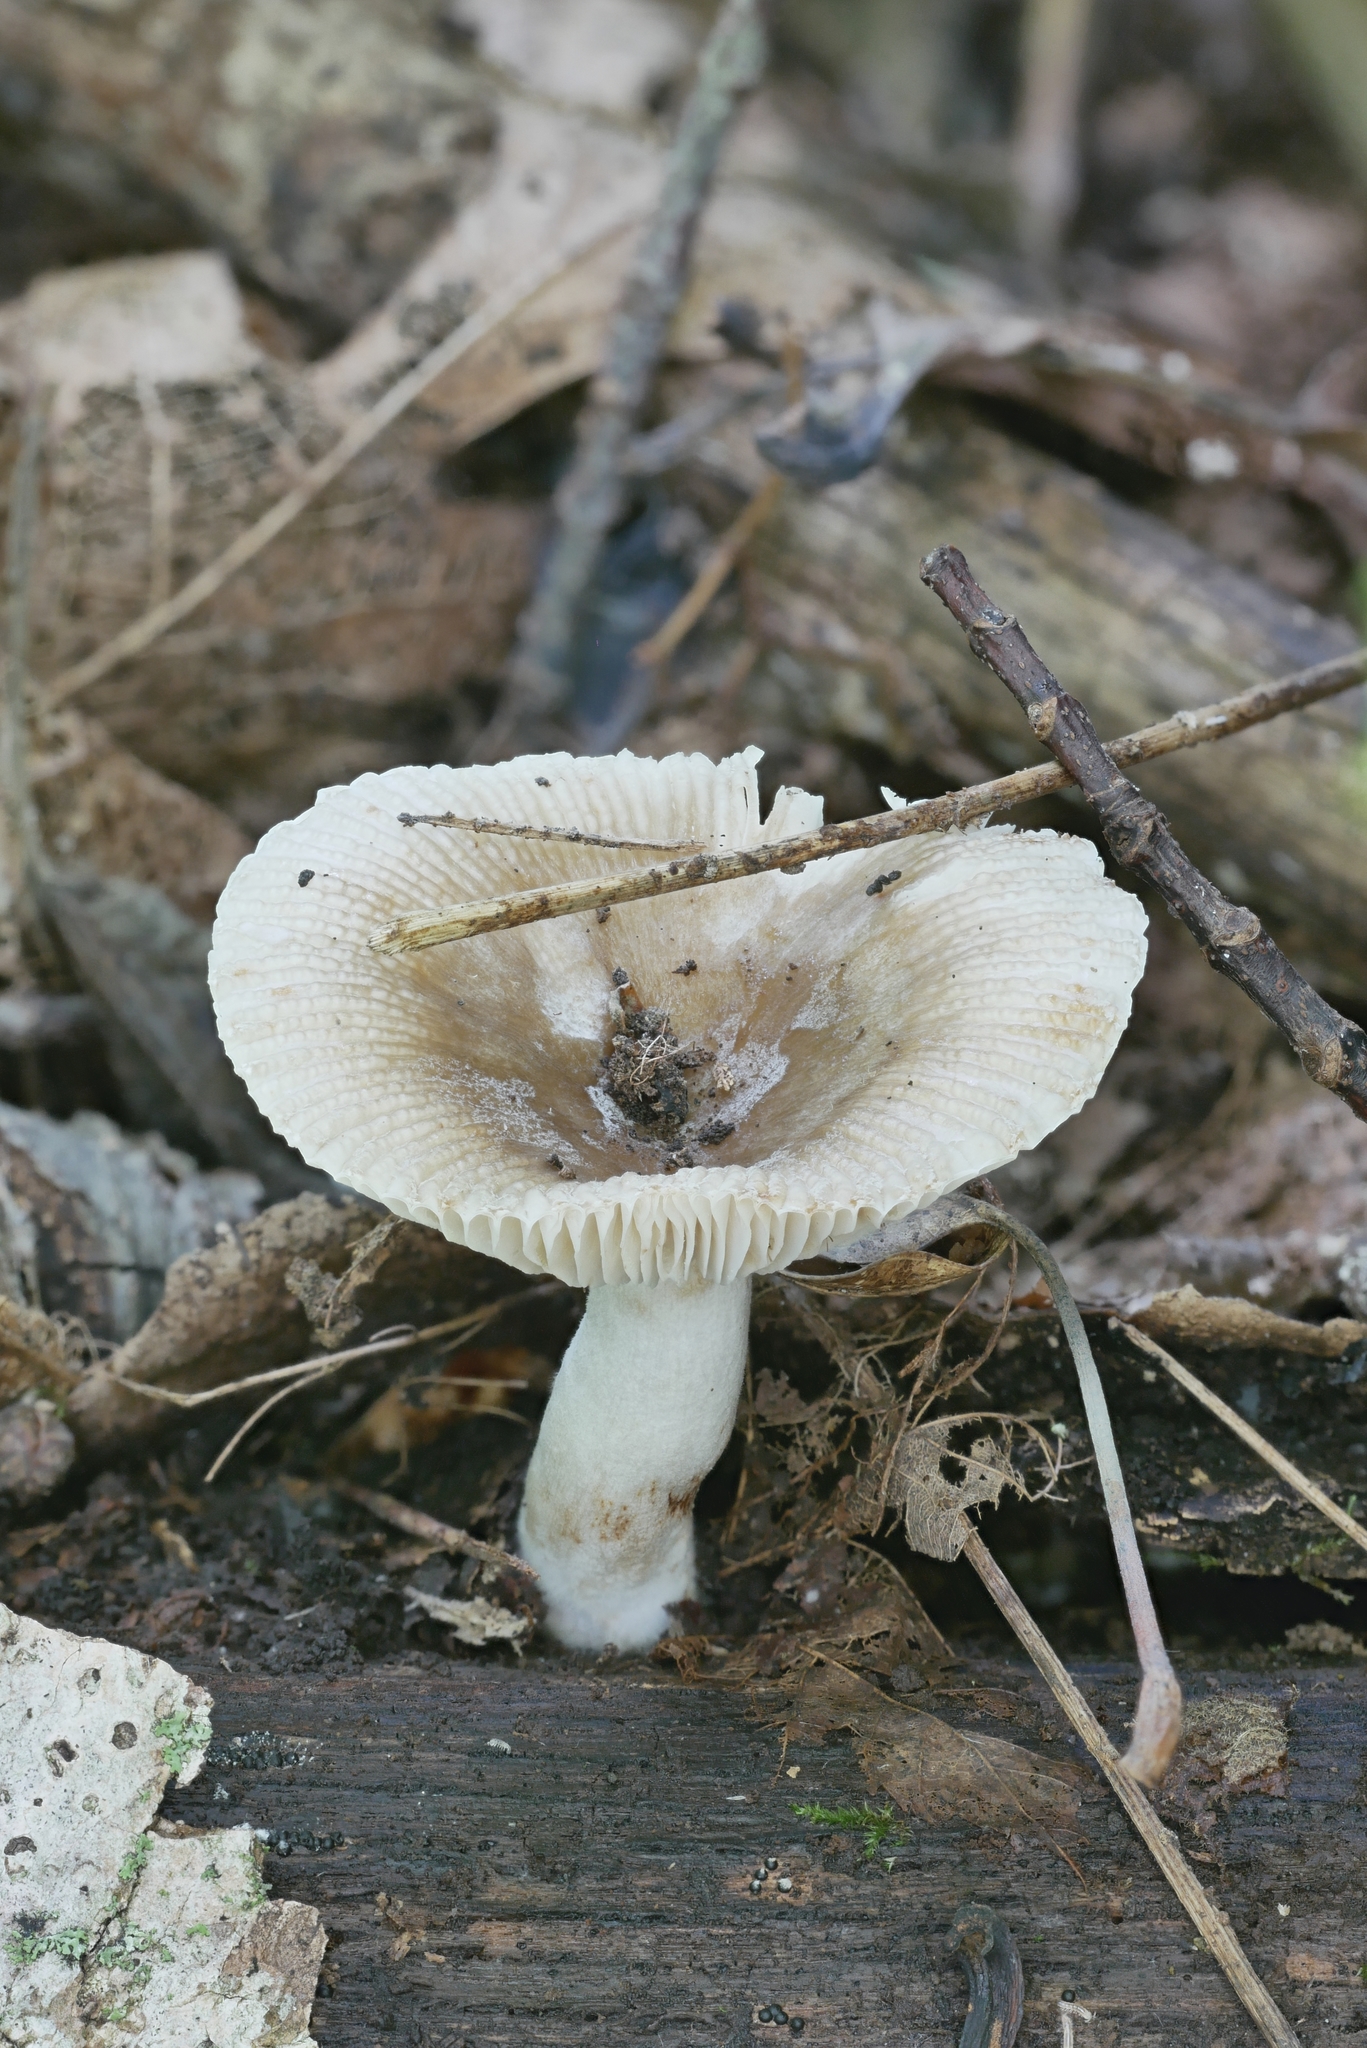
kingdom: Fungi
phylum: Basidiomycota
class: Agaricomycetes
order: Russulales
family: Russulaceae
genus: Russula
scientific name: Russula pectinatoides
